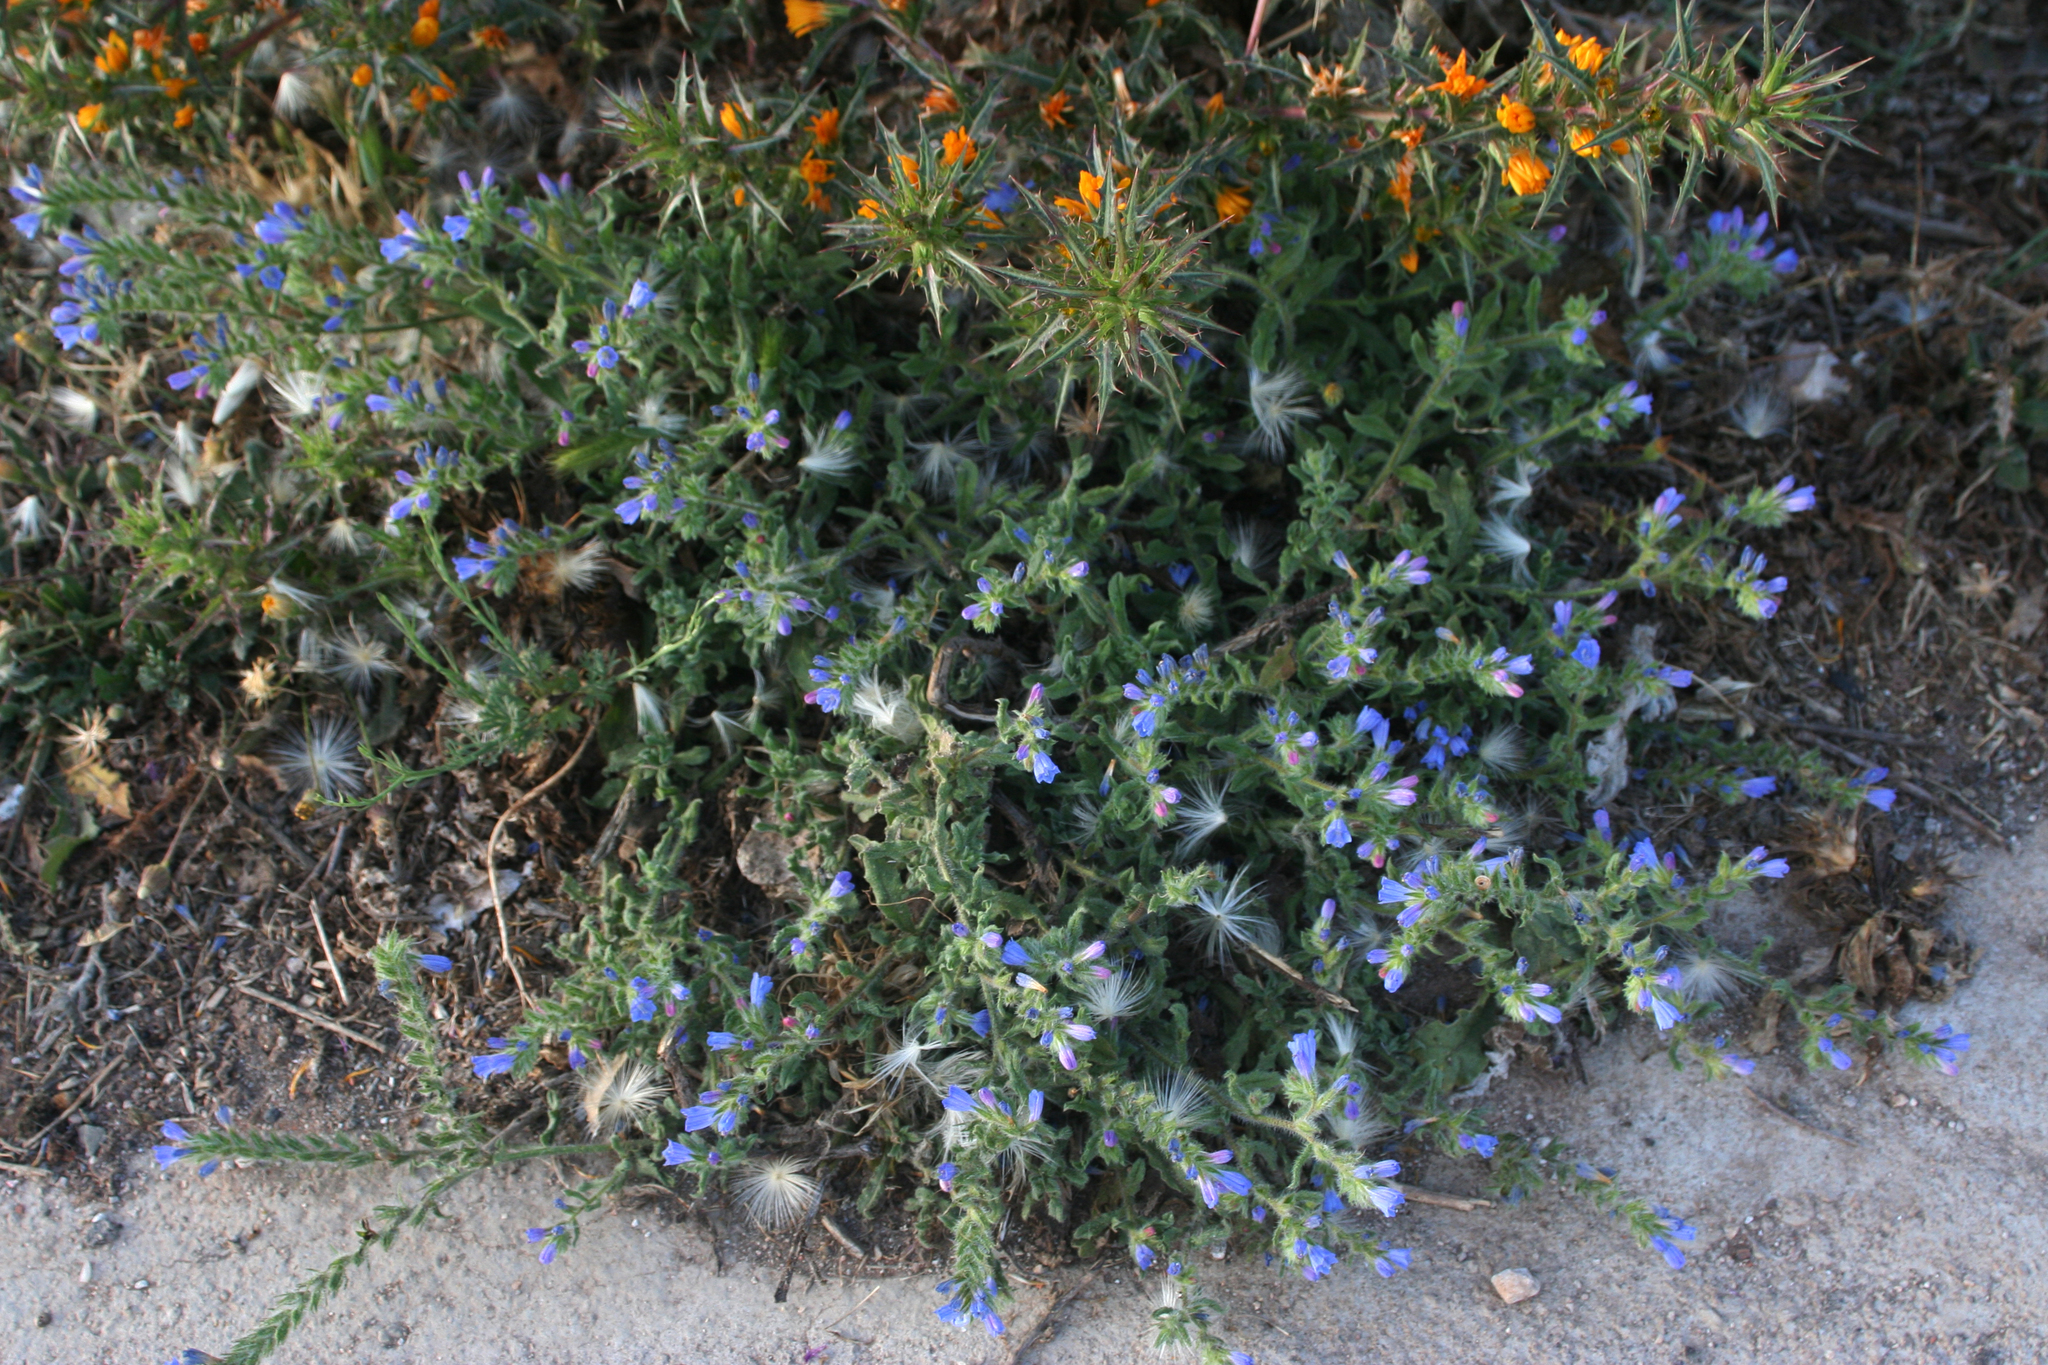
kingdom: Plantae
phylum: Tracheophyta
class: Magnoliopsida
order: Boraginales
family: Boraginaceae
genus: Echium
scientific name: Echium tenue
